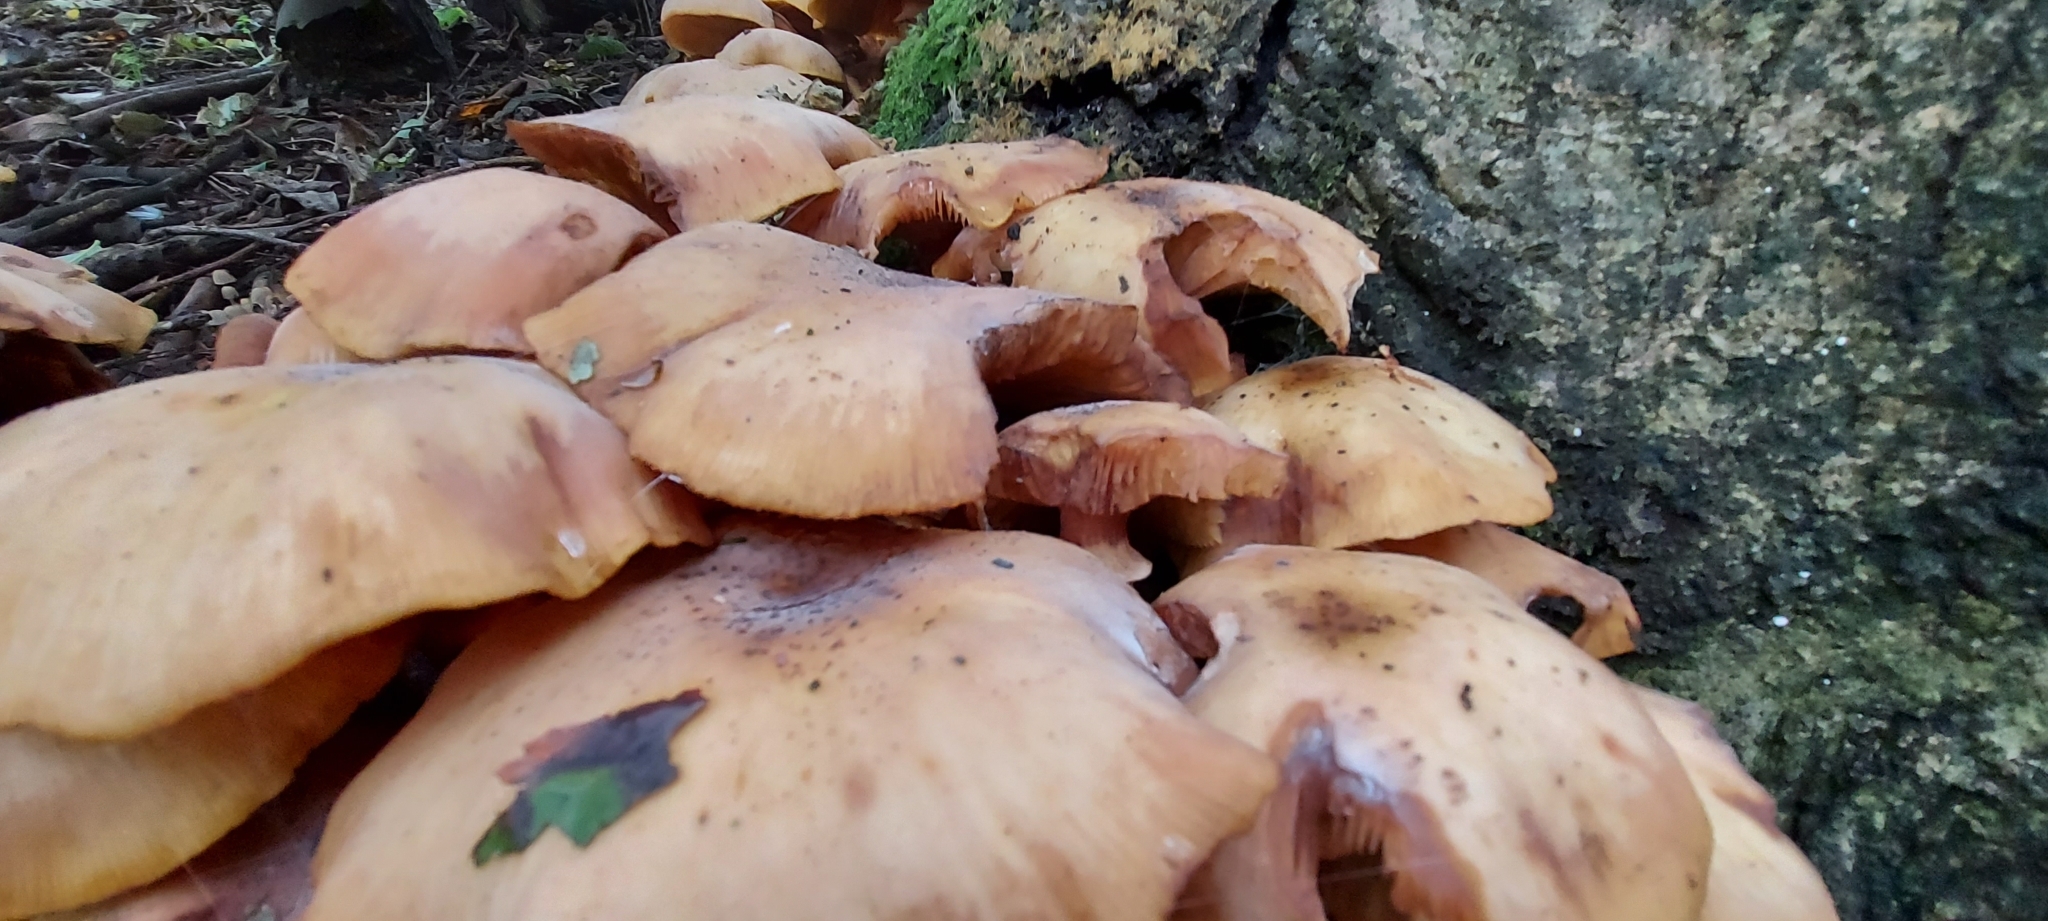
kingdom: Fungi
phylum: Basidiomycota
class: Agaricomycetes
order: Agaricales
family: Physalacriaceae
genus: Armillaria
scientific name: Armillaria mellea
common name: Honey fungus
